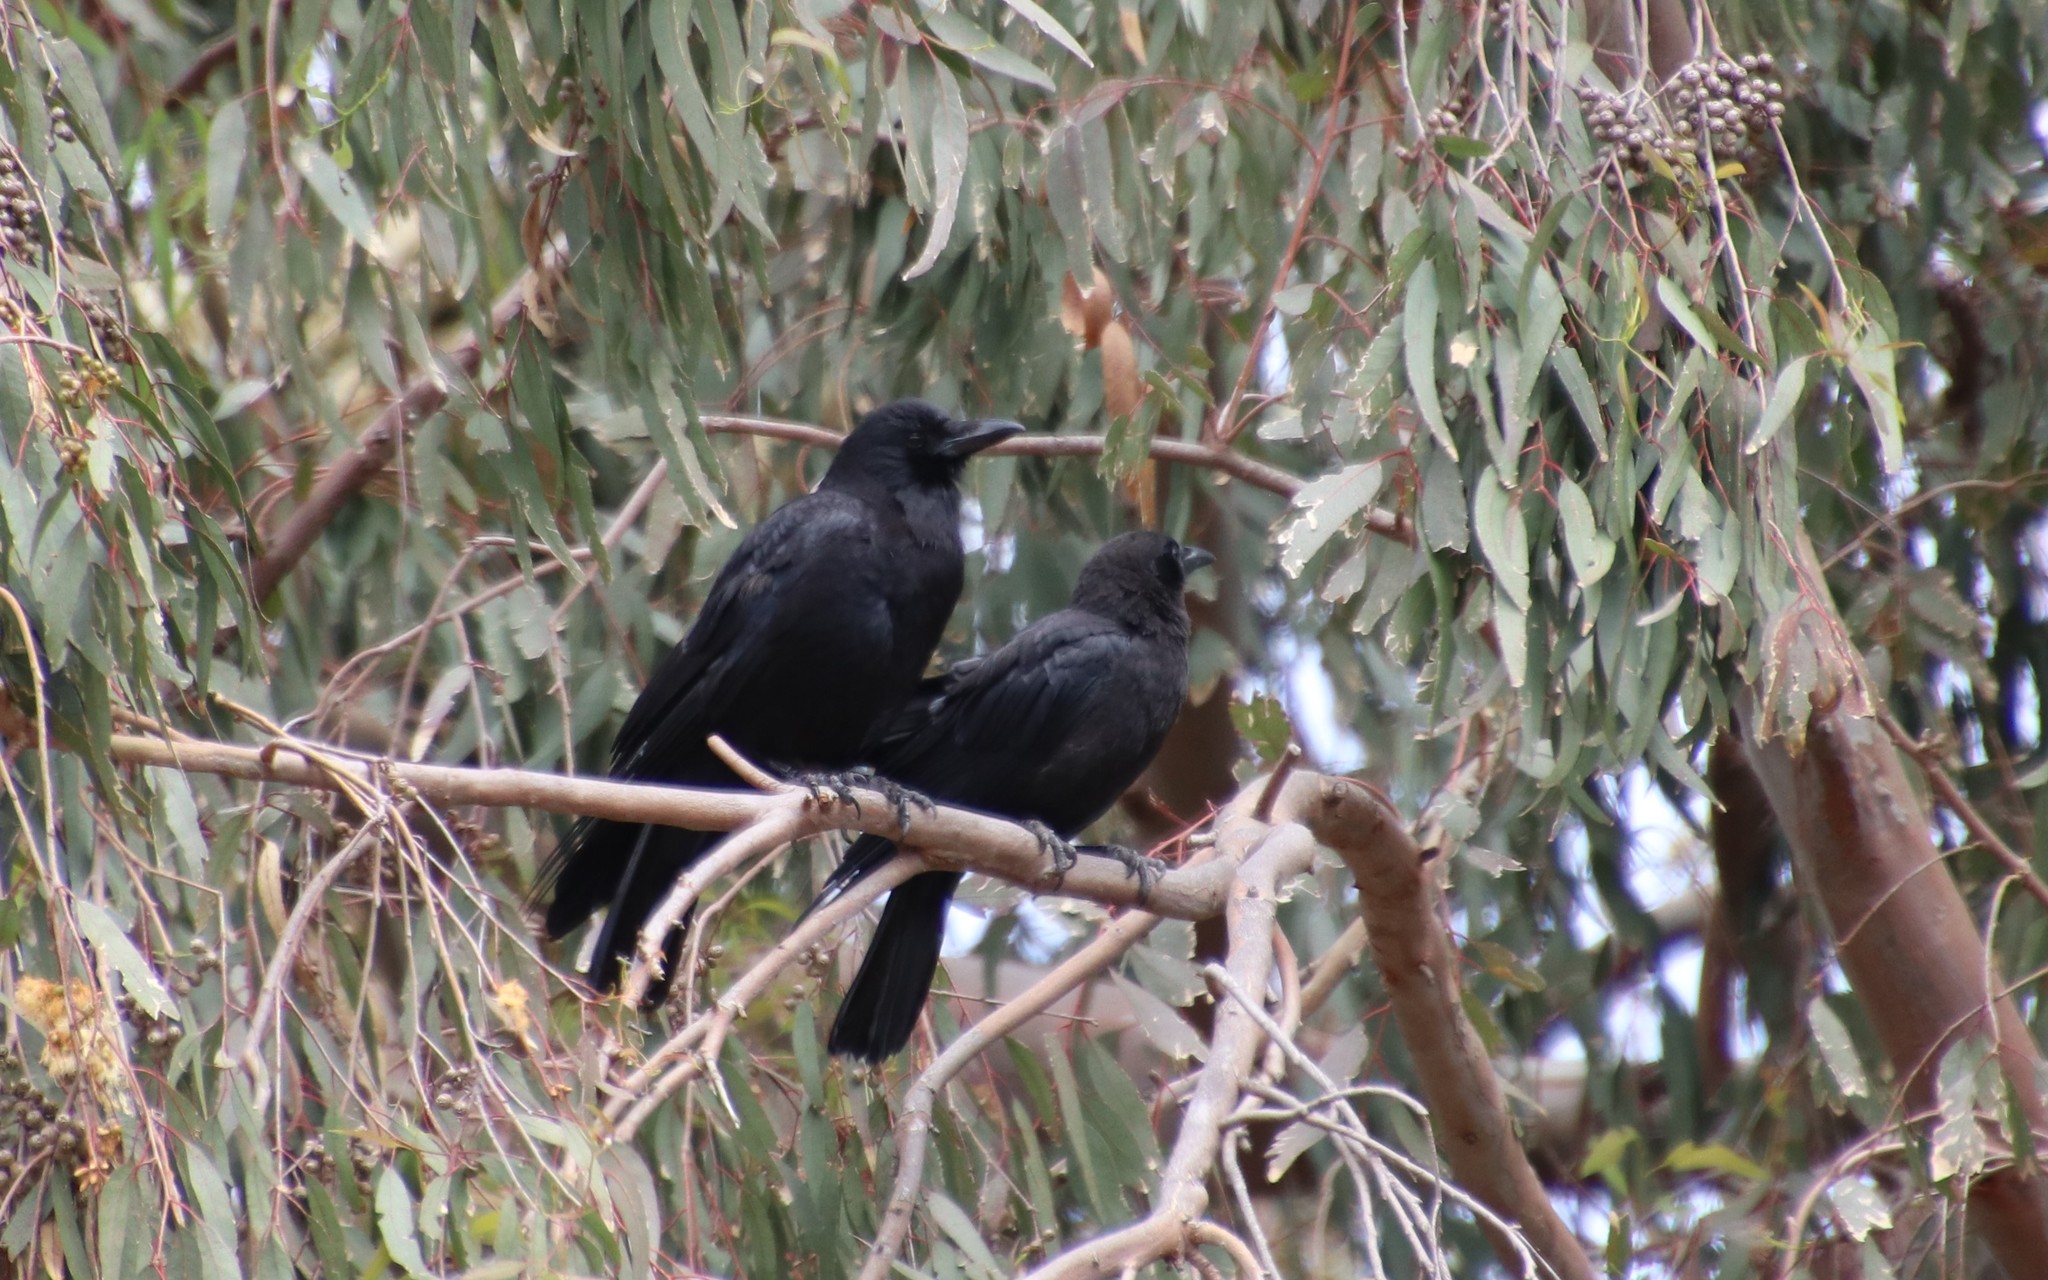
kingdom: Animalia
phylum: Chordata
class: Aves
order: Passeriformes
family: Corvidae
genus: Corvus
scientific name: Corvus brachyrhynchos
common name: American crow
